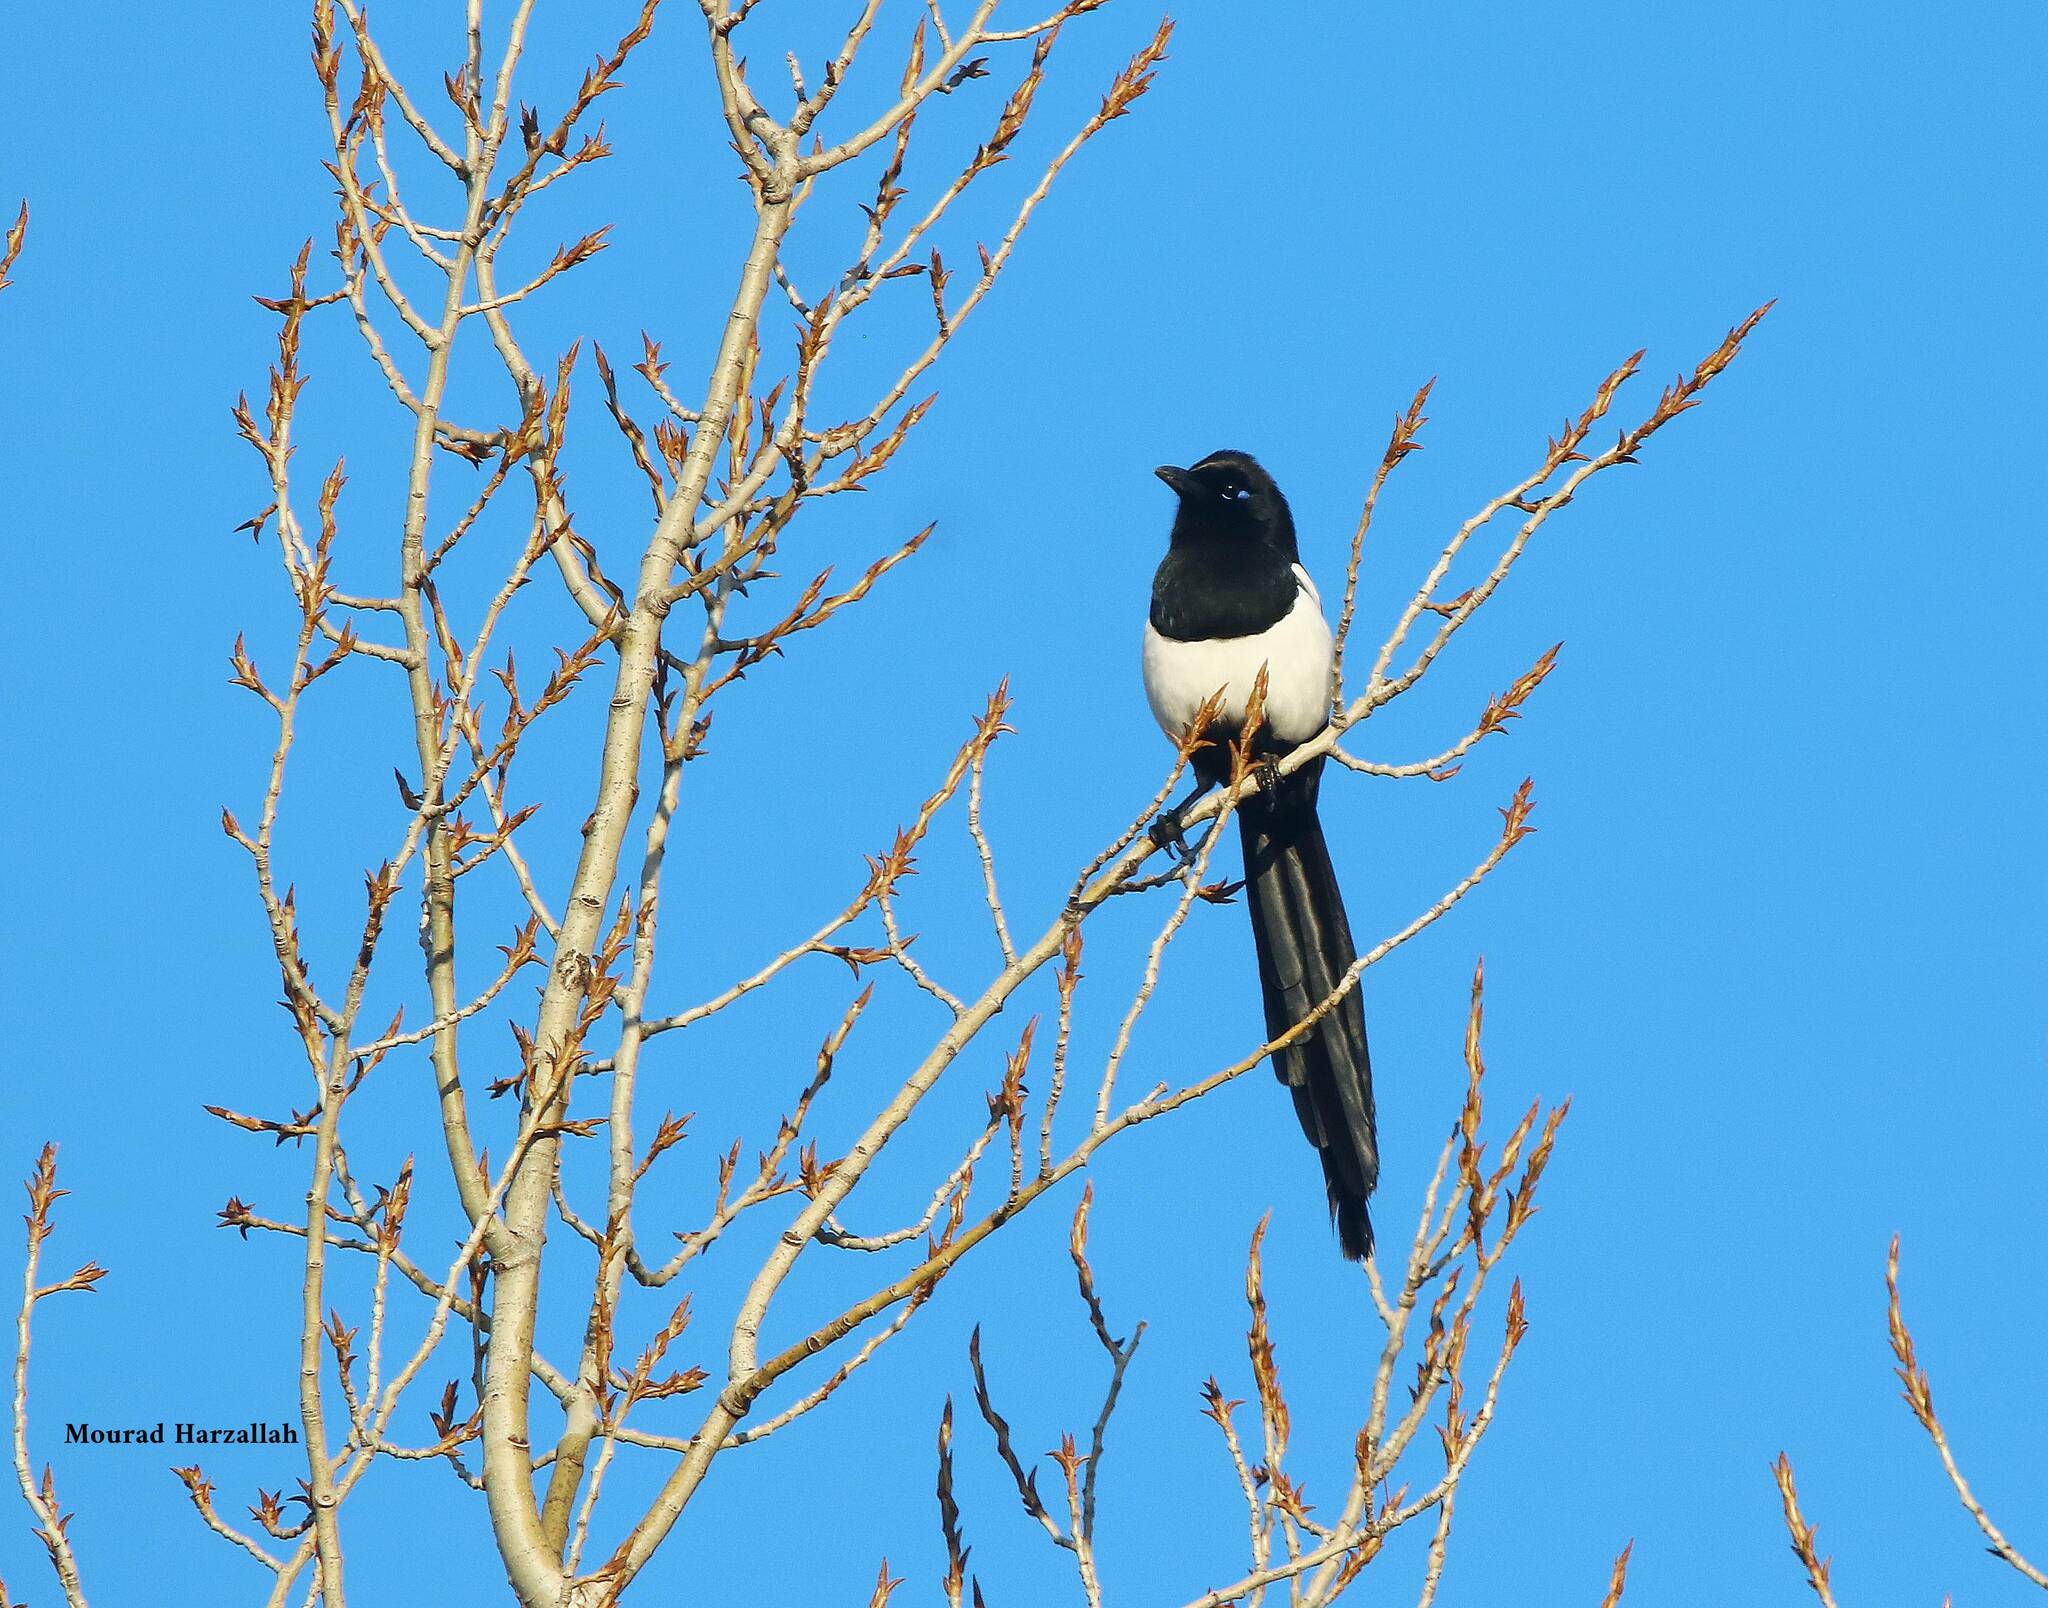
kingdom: Animalia
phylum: Chordata
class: Aves
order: Passeriformes
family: Corvidae
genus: Pica
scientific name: Pica mauritanica
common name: Maghreb magpie
